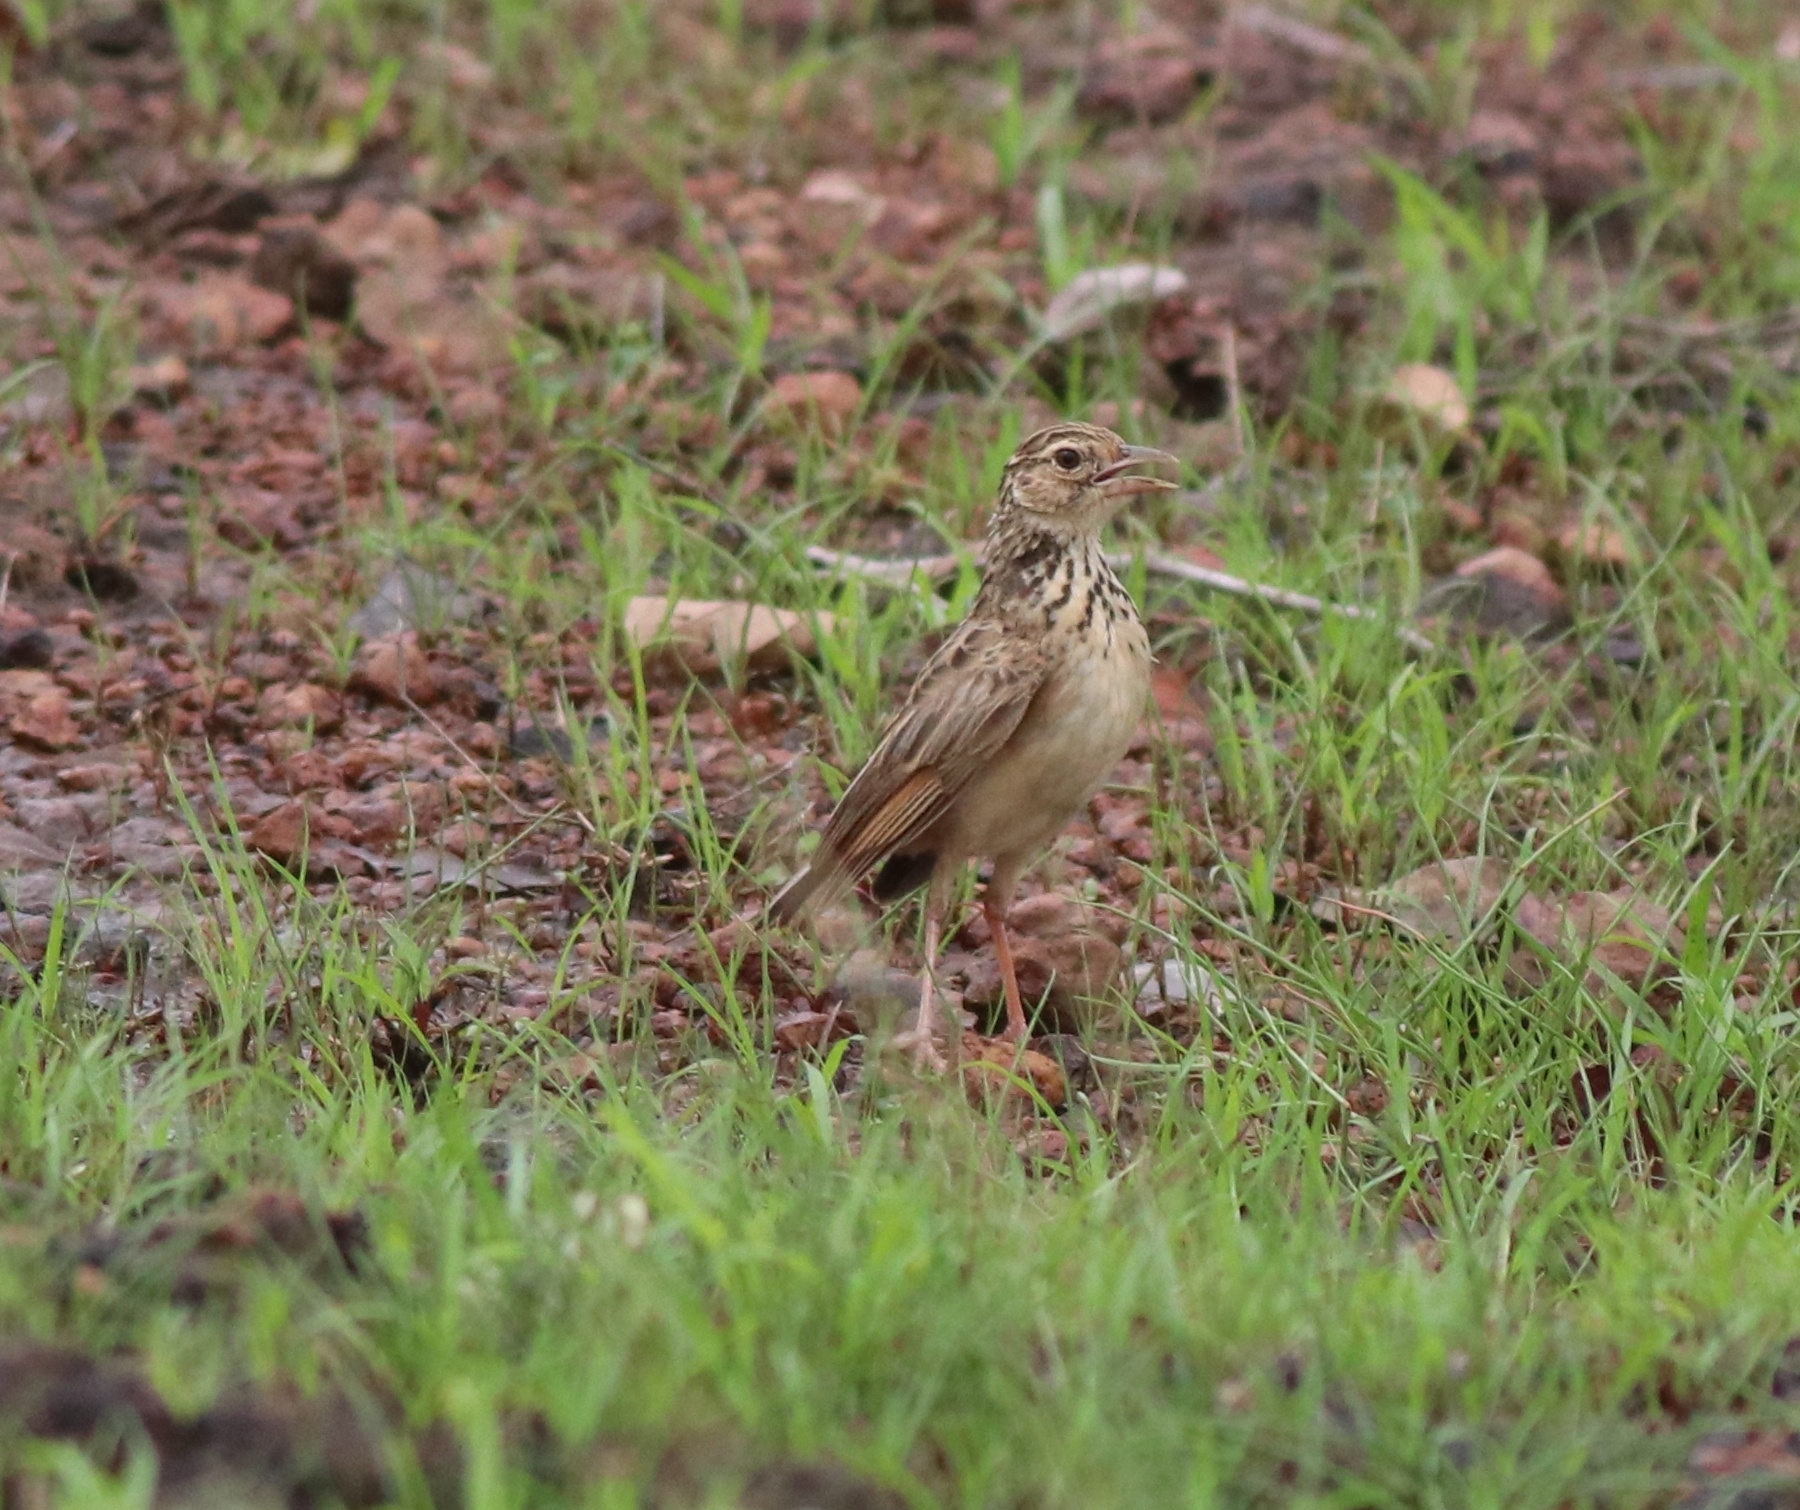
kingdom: Animalia
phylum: Chordata
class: Aves
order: Passeriformes
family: Alaudidae
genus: Mirafra
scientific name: Mirafra affinis
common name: Jerdon's bushlark
